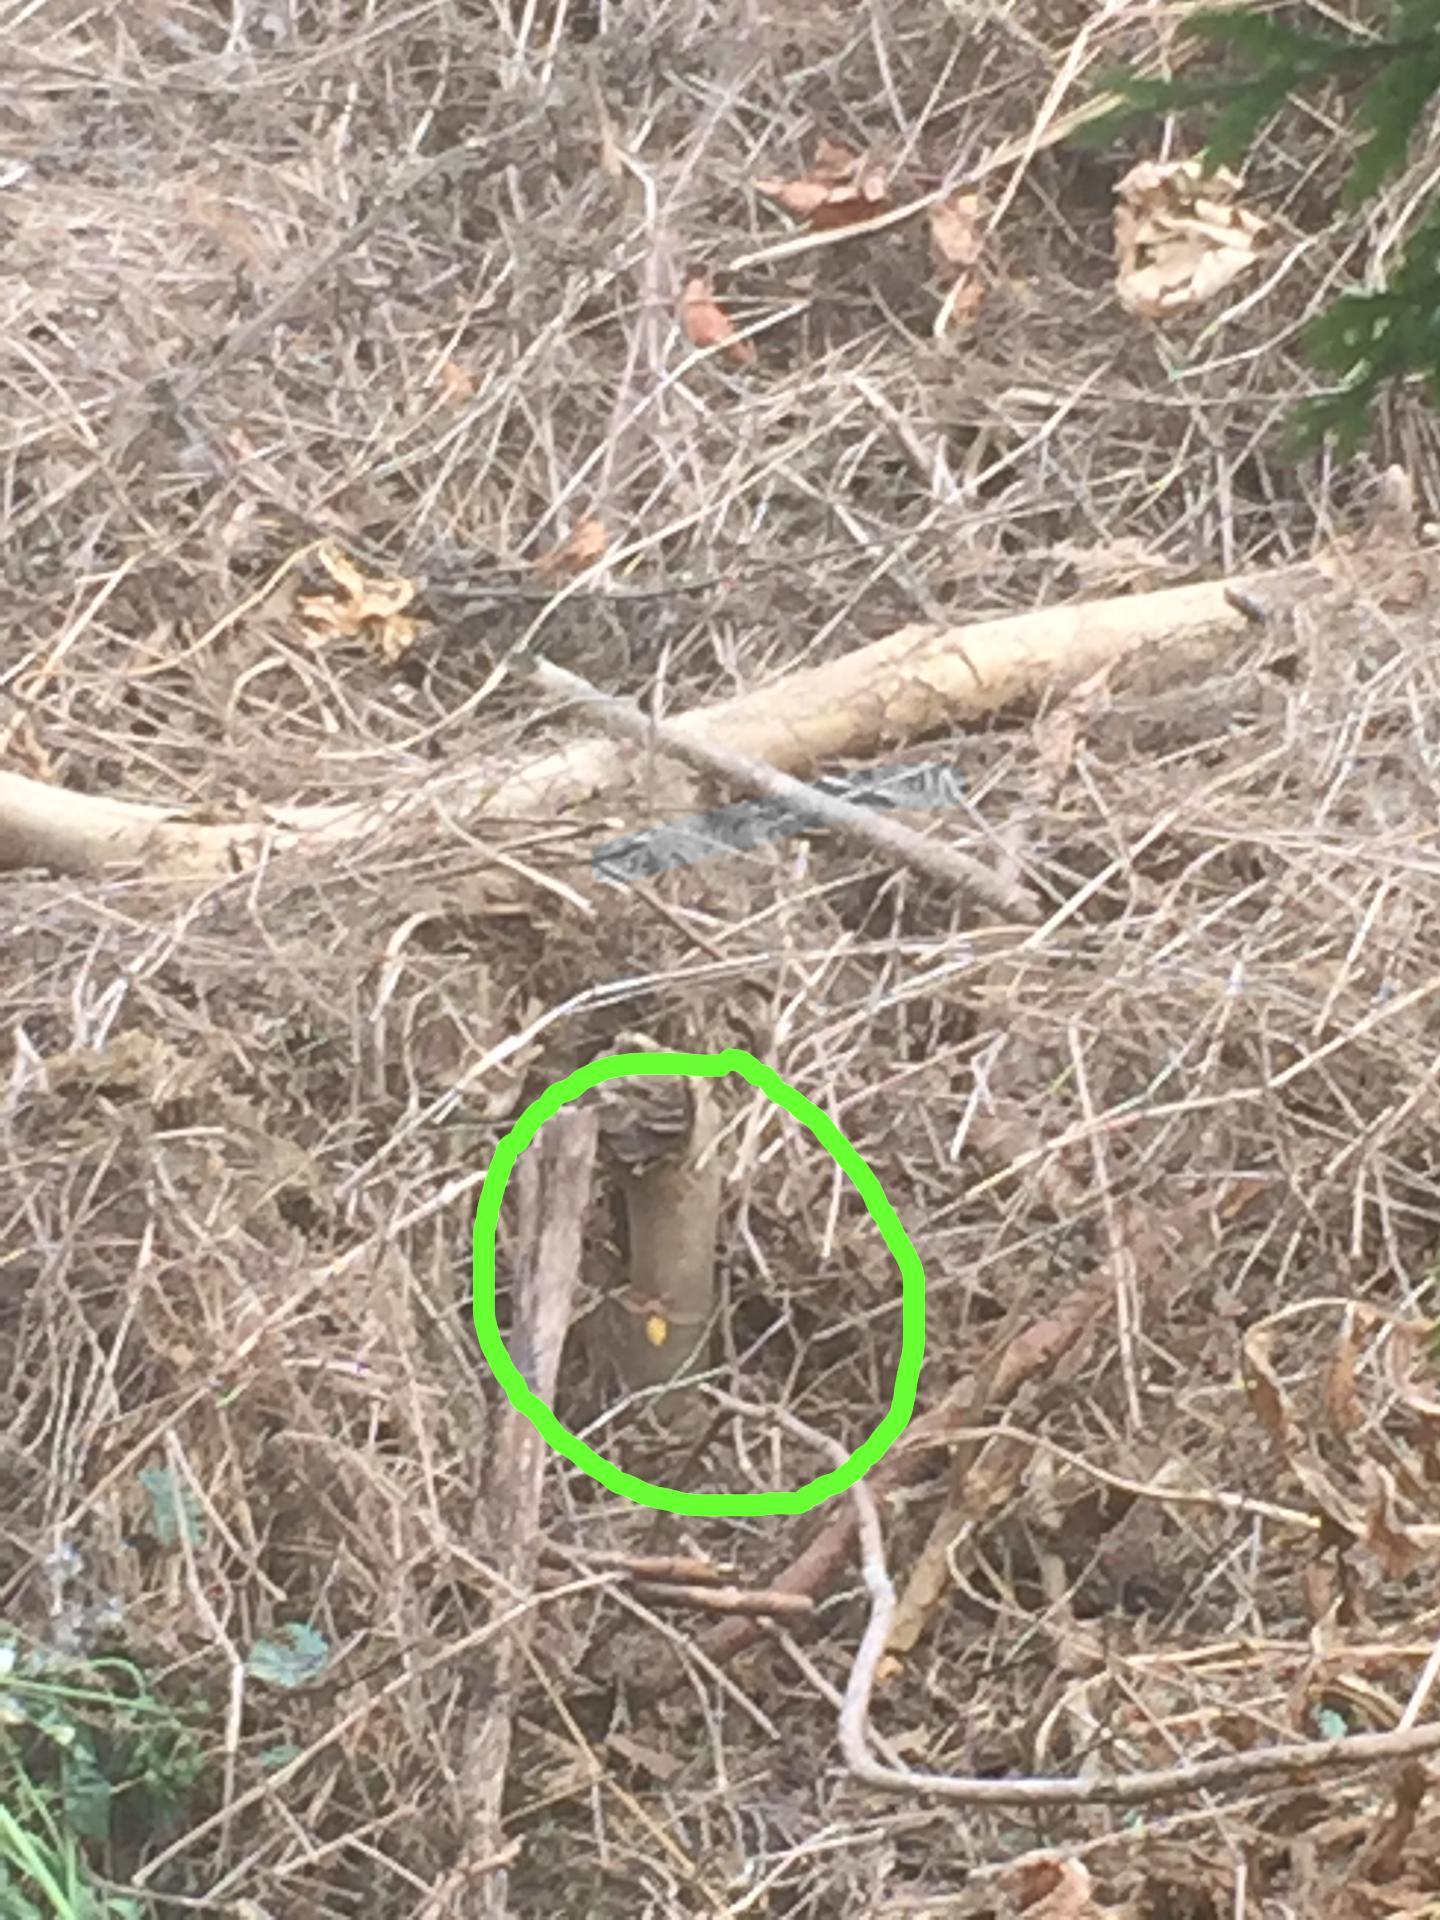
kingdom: Animalia
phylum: Arthropoda
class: Insecta
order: Hymenoptera
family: Vespidae
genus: Vespa
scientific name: Vespa crabro
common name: Hornet
